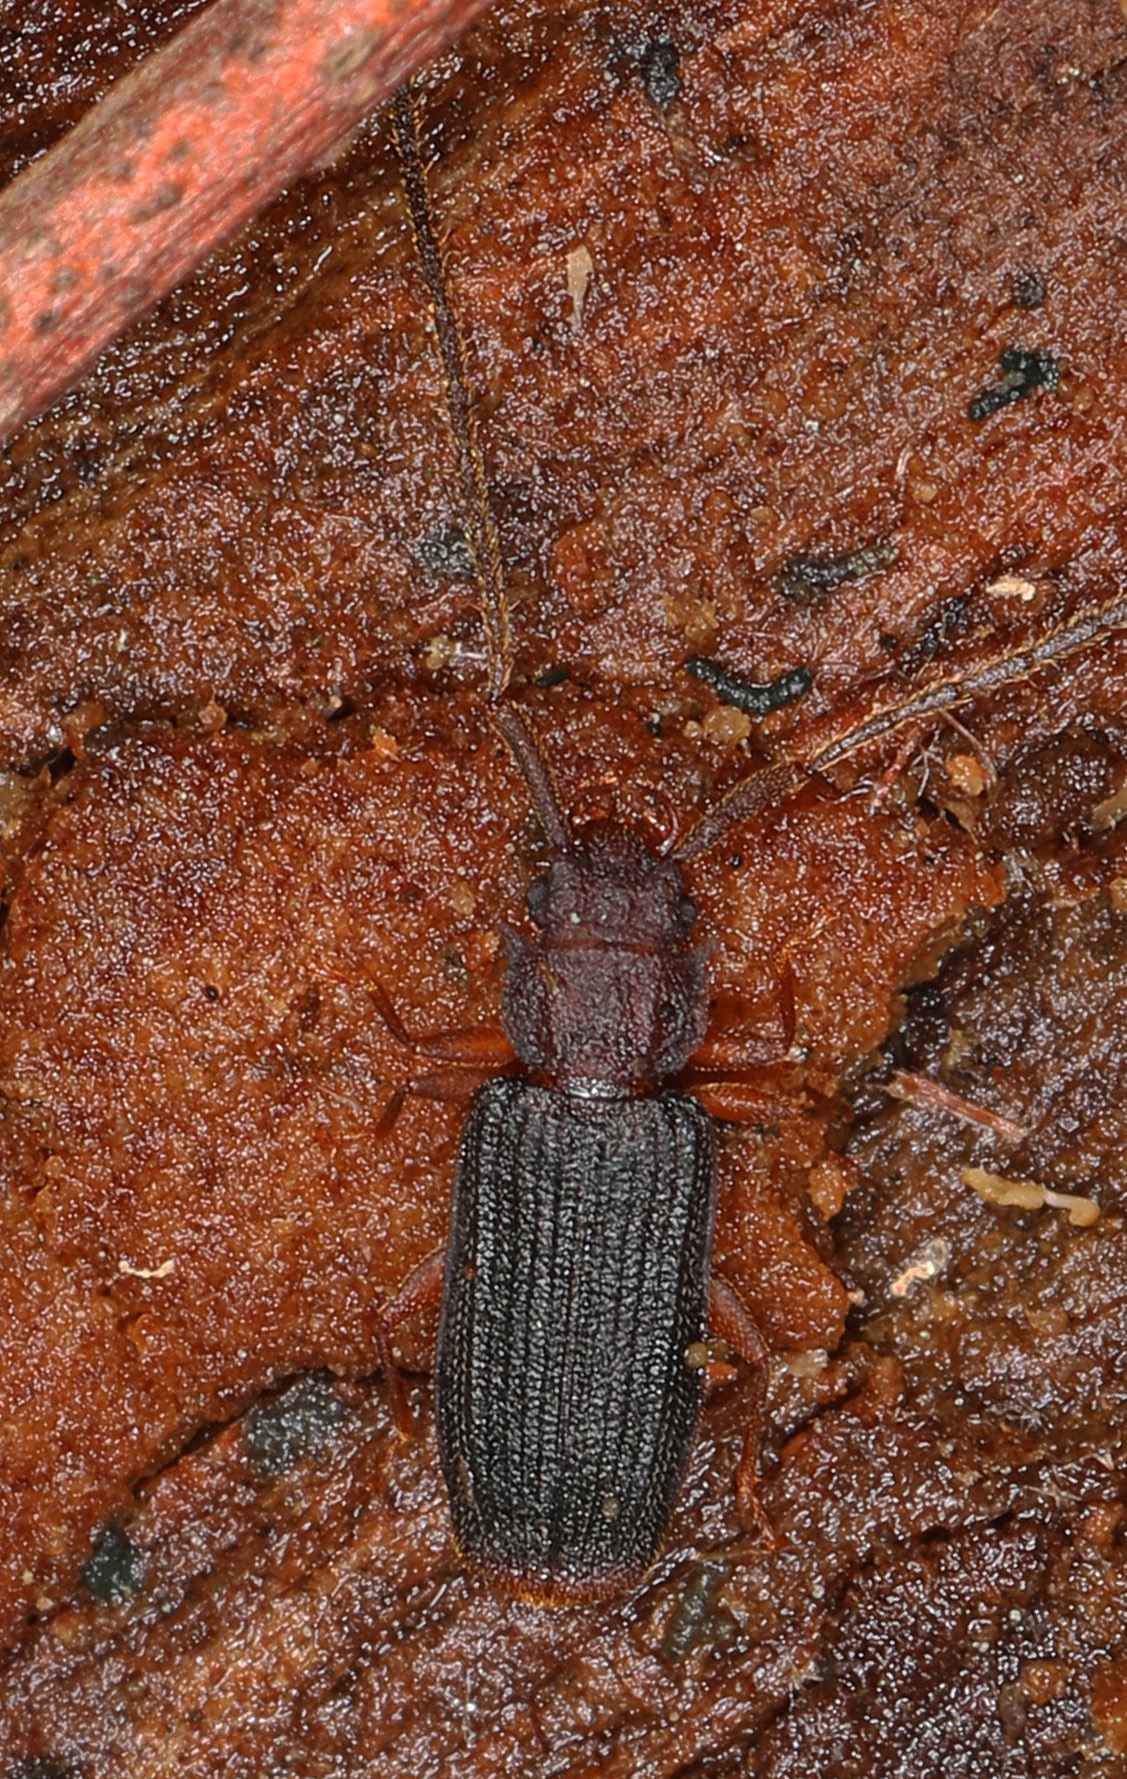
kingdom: Animalia
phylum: Arthropoda
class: Insecta
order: Coleoptera
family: Silvanidae
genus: Uleiota
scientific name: Uleiota dubia
